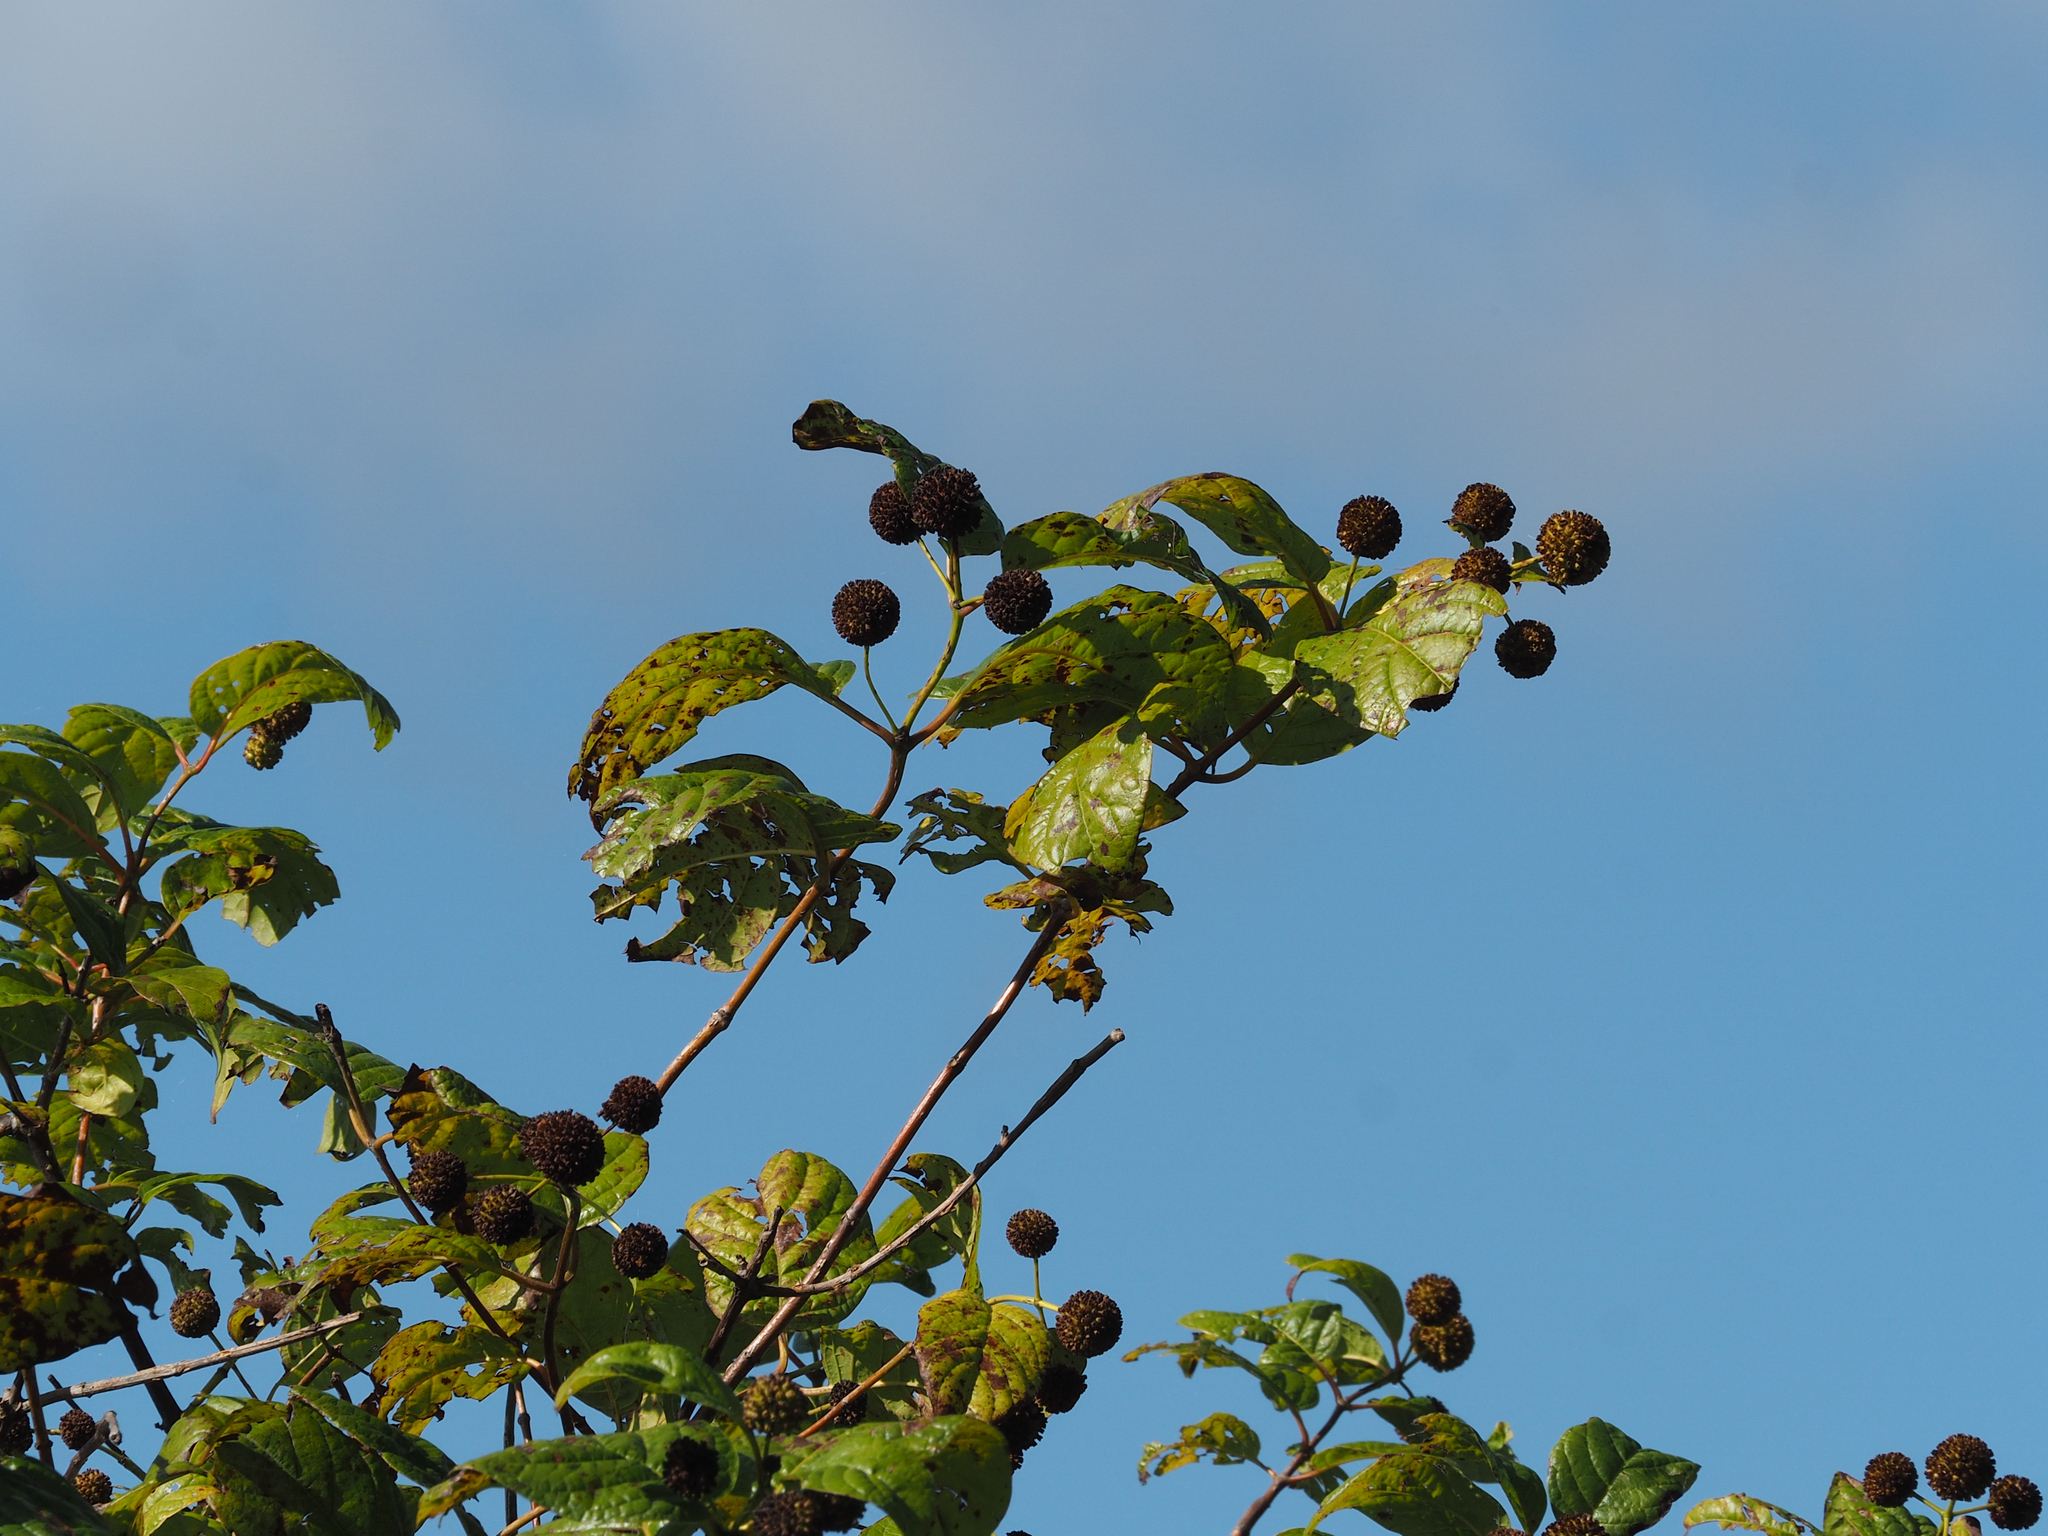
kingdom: Plantae
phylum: Tracheophyta
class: Magnoliopsida
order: Gentianales
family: Rubiaceae
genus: Cephalanthus
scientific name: Cephalanthus occidentalis
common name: Button-willow
